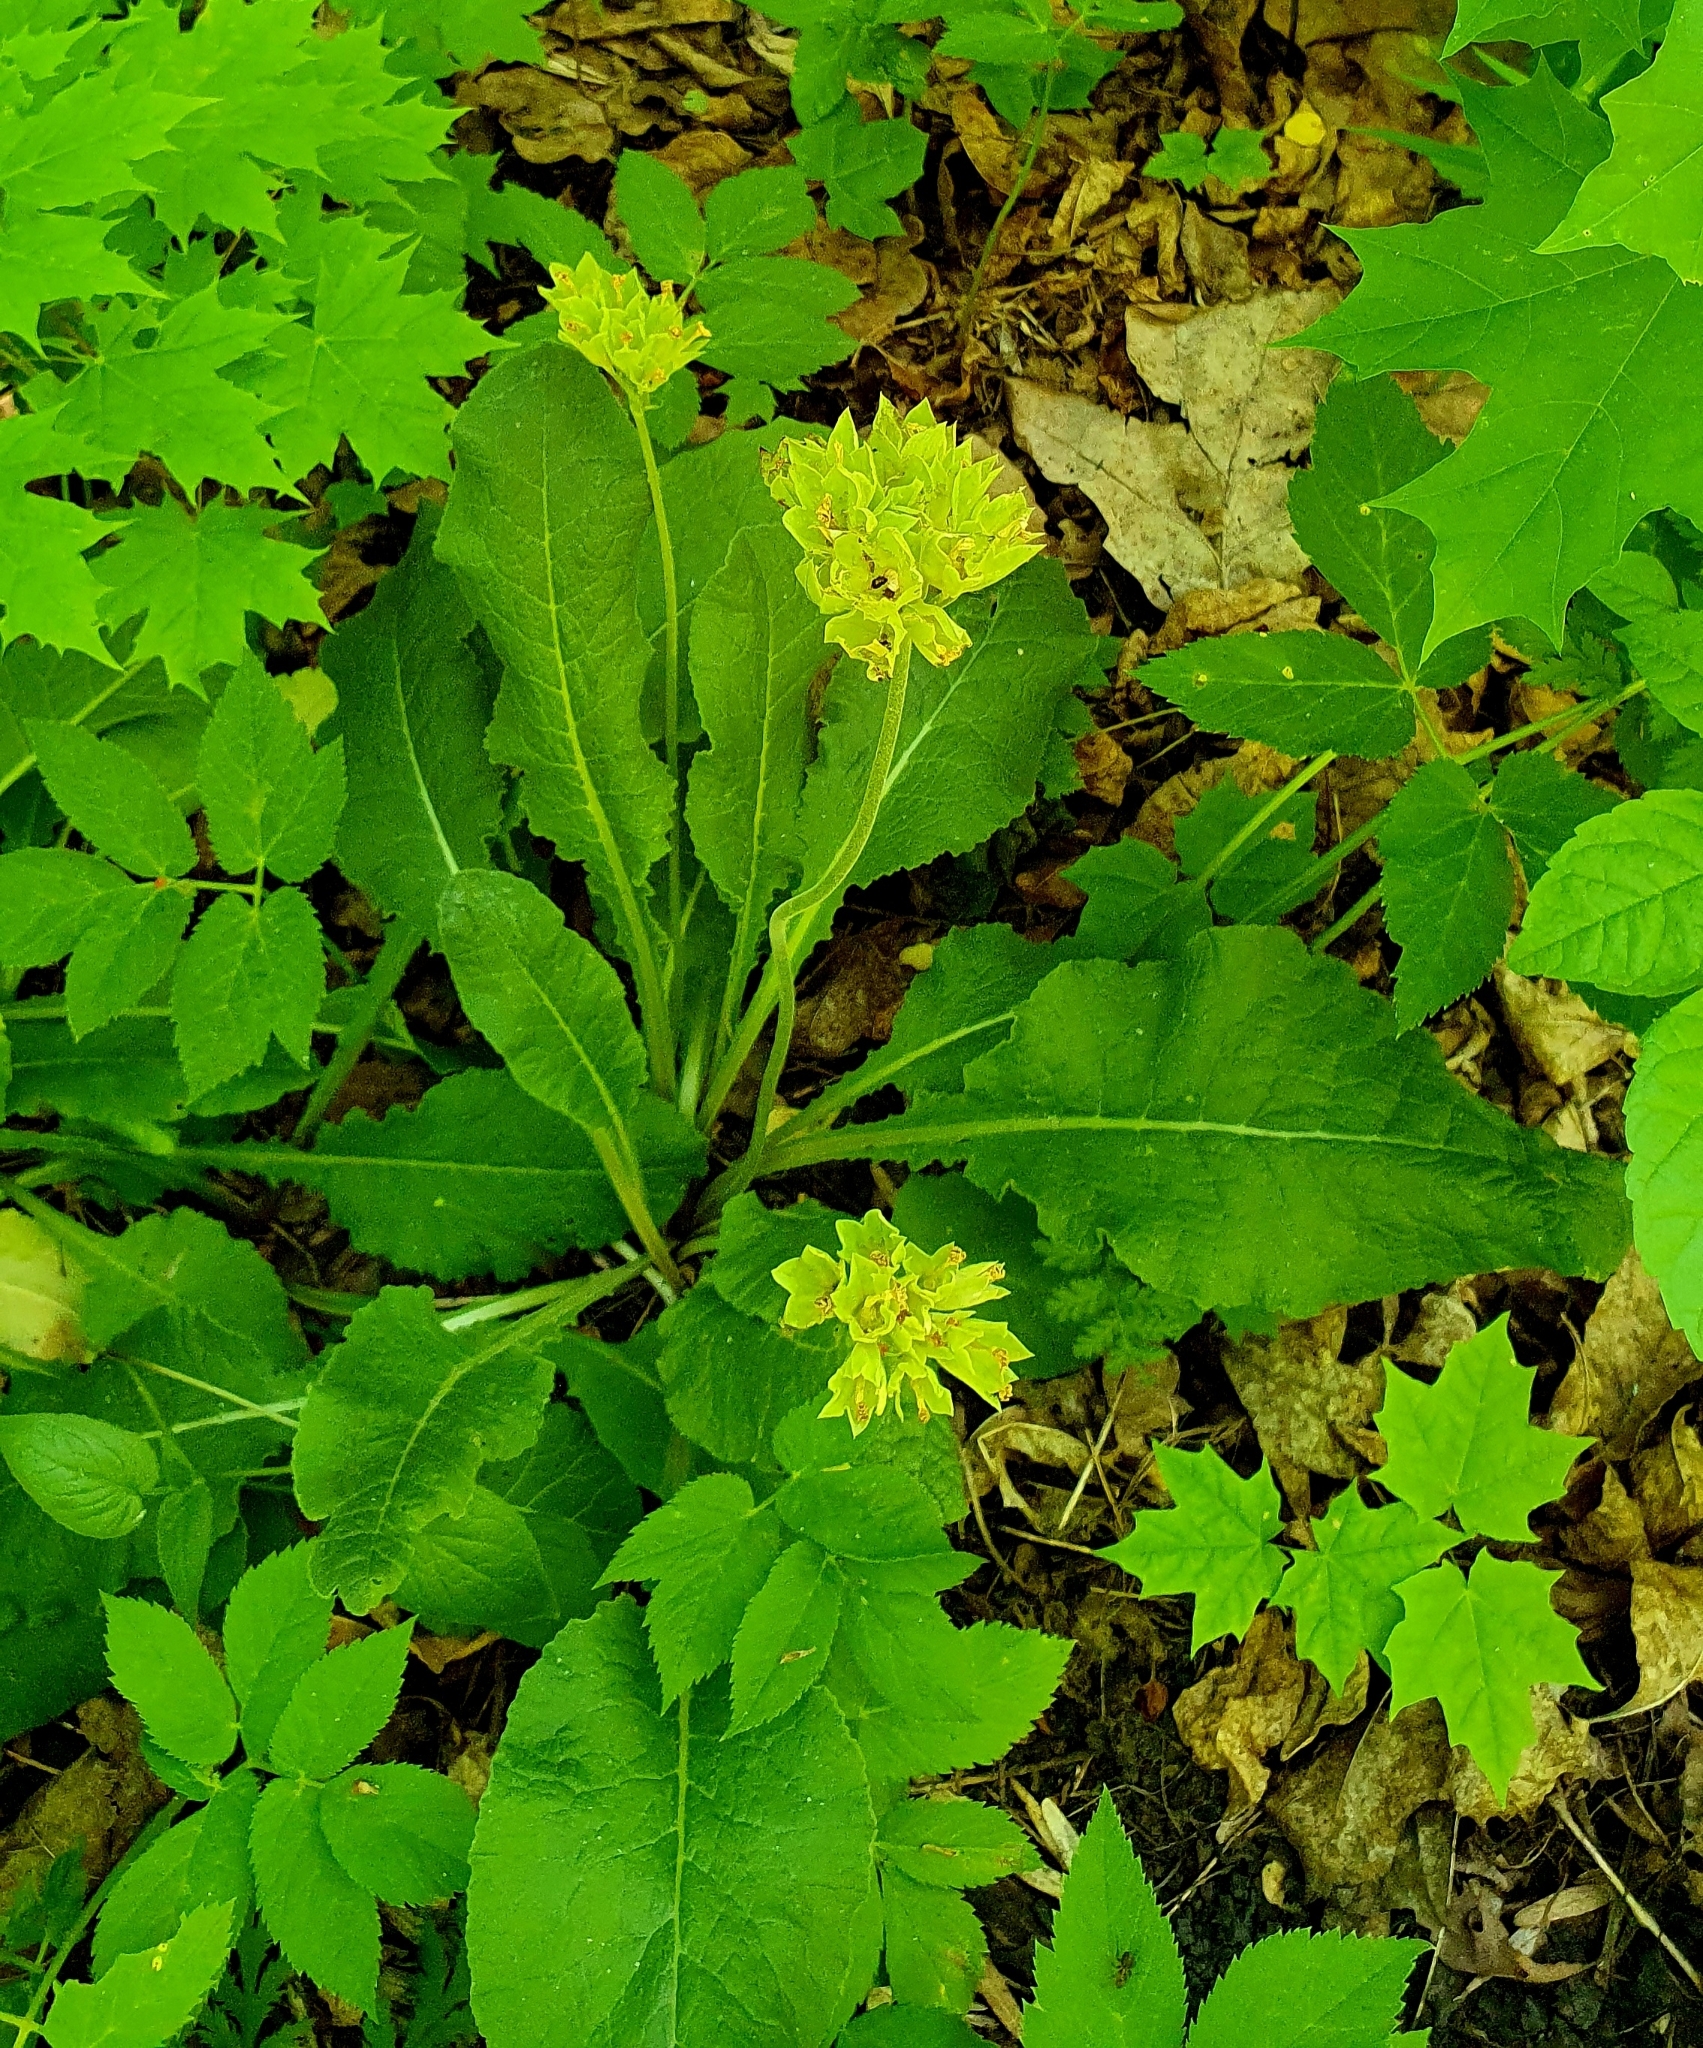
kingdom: Plantae
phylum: Tracheophyta
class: Magnoliopsida
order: Ericales
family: Primulaceae
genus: Primula
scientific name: Primula veris
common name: Cowslip
